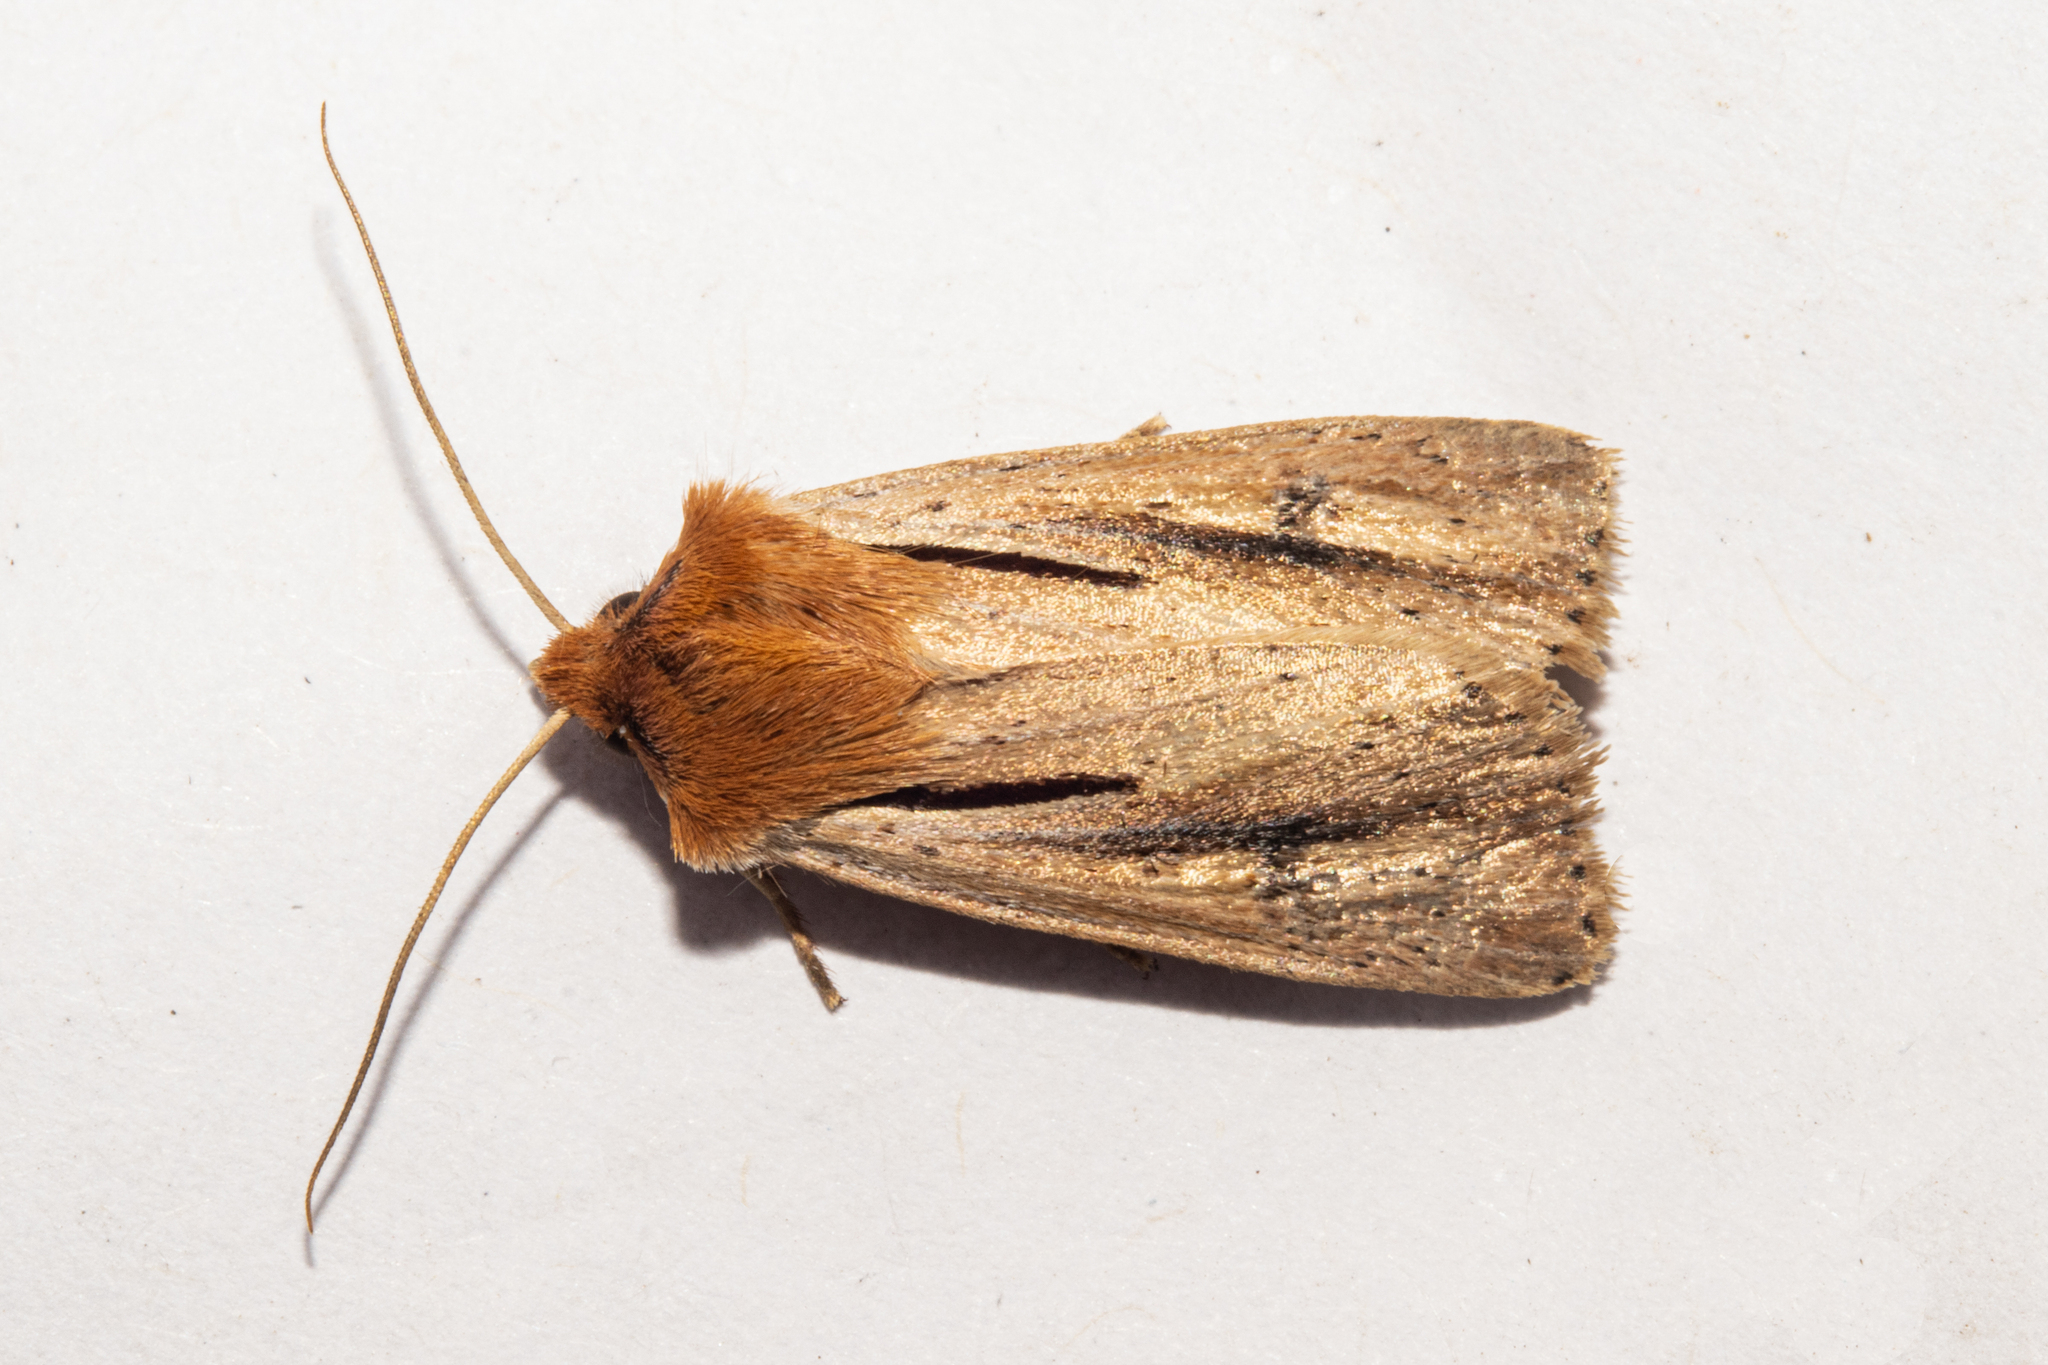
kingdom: Animalia
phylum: Arthropoda
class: Insecta
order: Lepidoptera
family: Noctuidae
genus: Ichneutica
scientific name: Ichneutica propria
